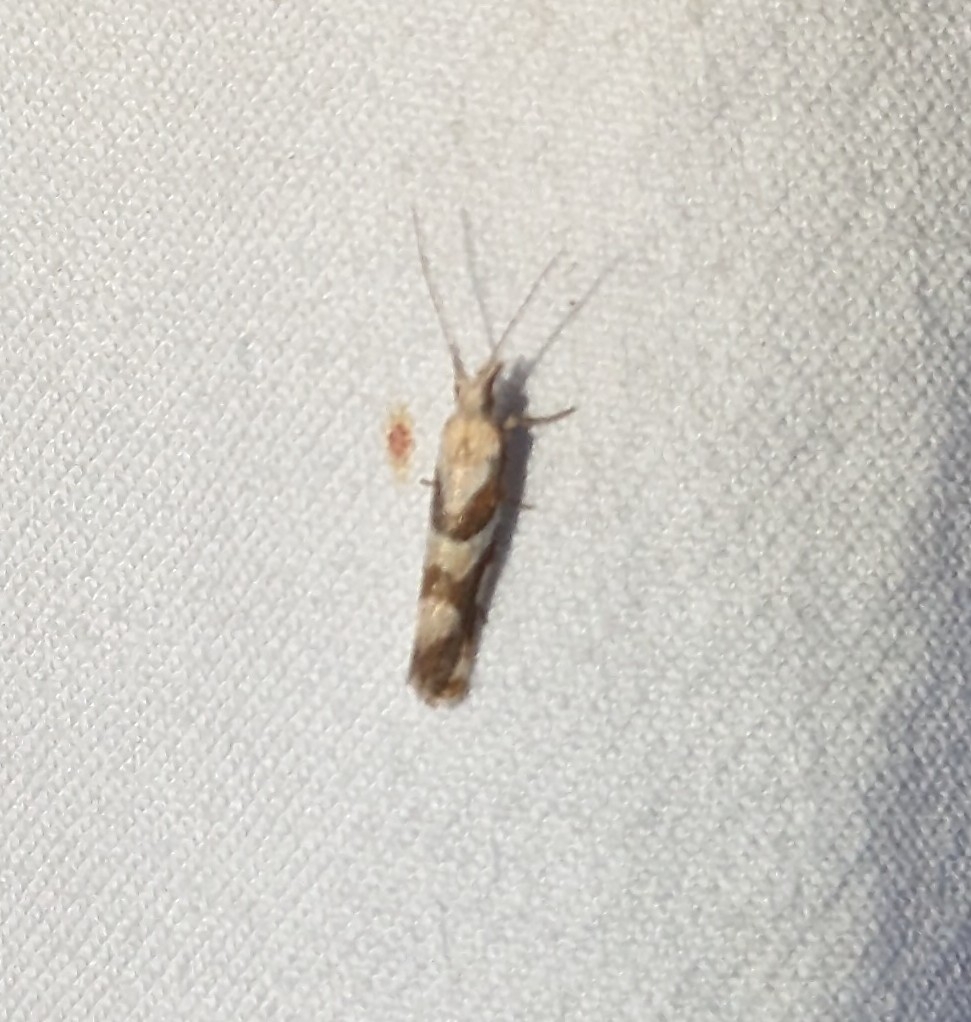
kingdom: Animalia
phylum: Arthropoda
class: Insecta
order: Lepidoptera
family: Plutellidae
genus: Eidophasia
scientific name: Eidophasia vanella
